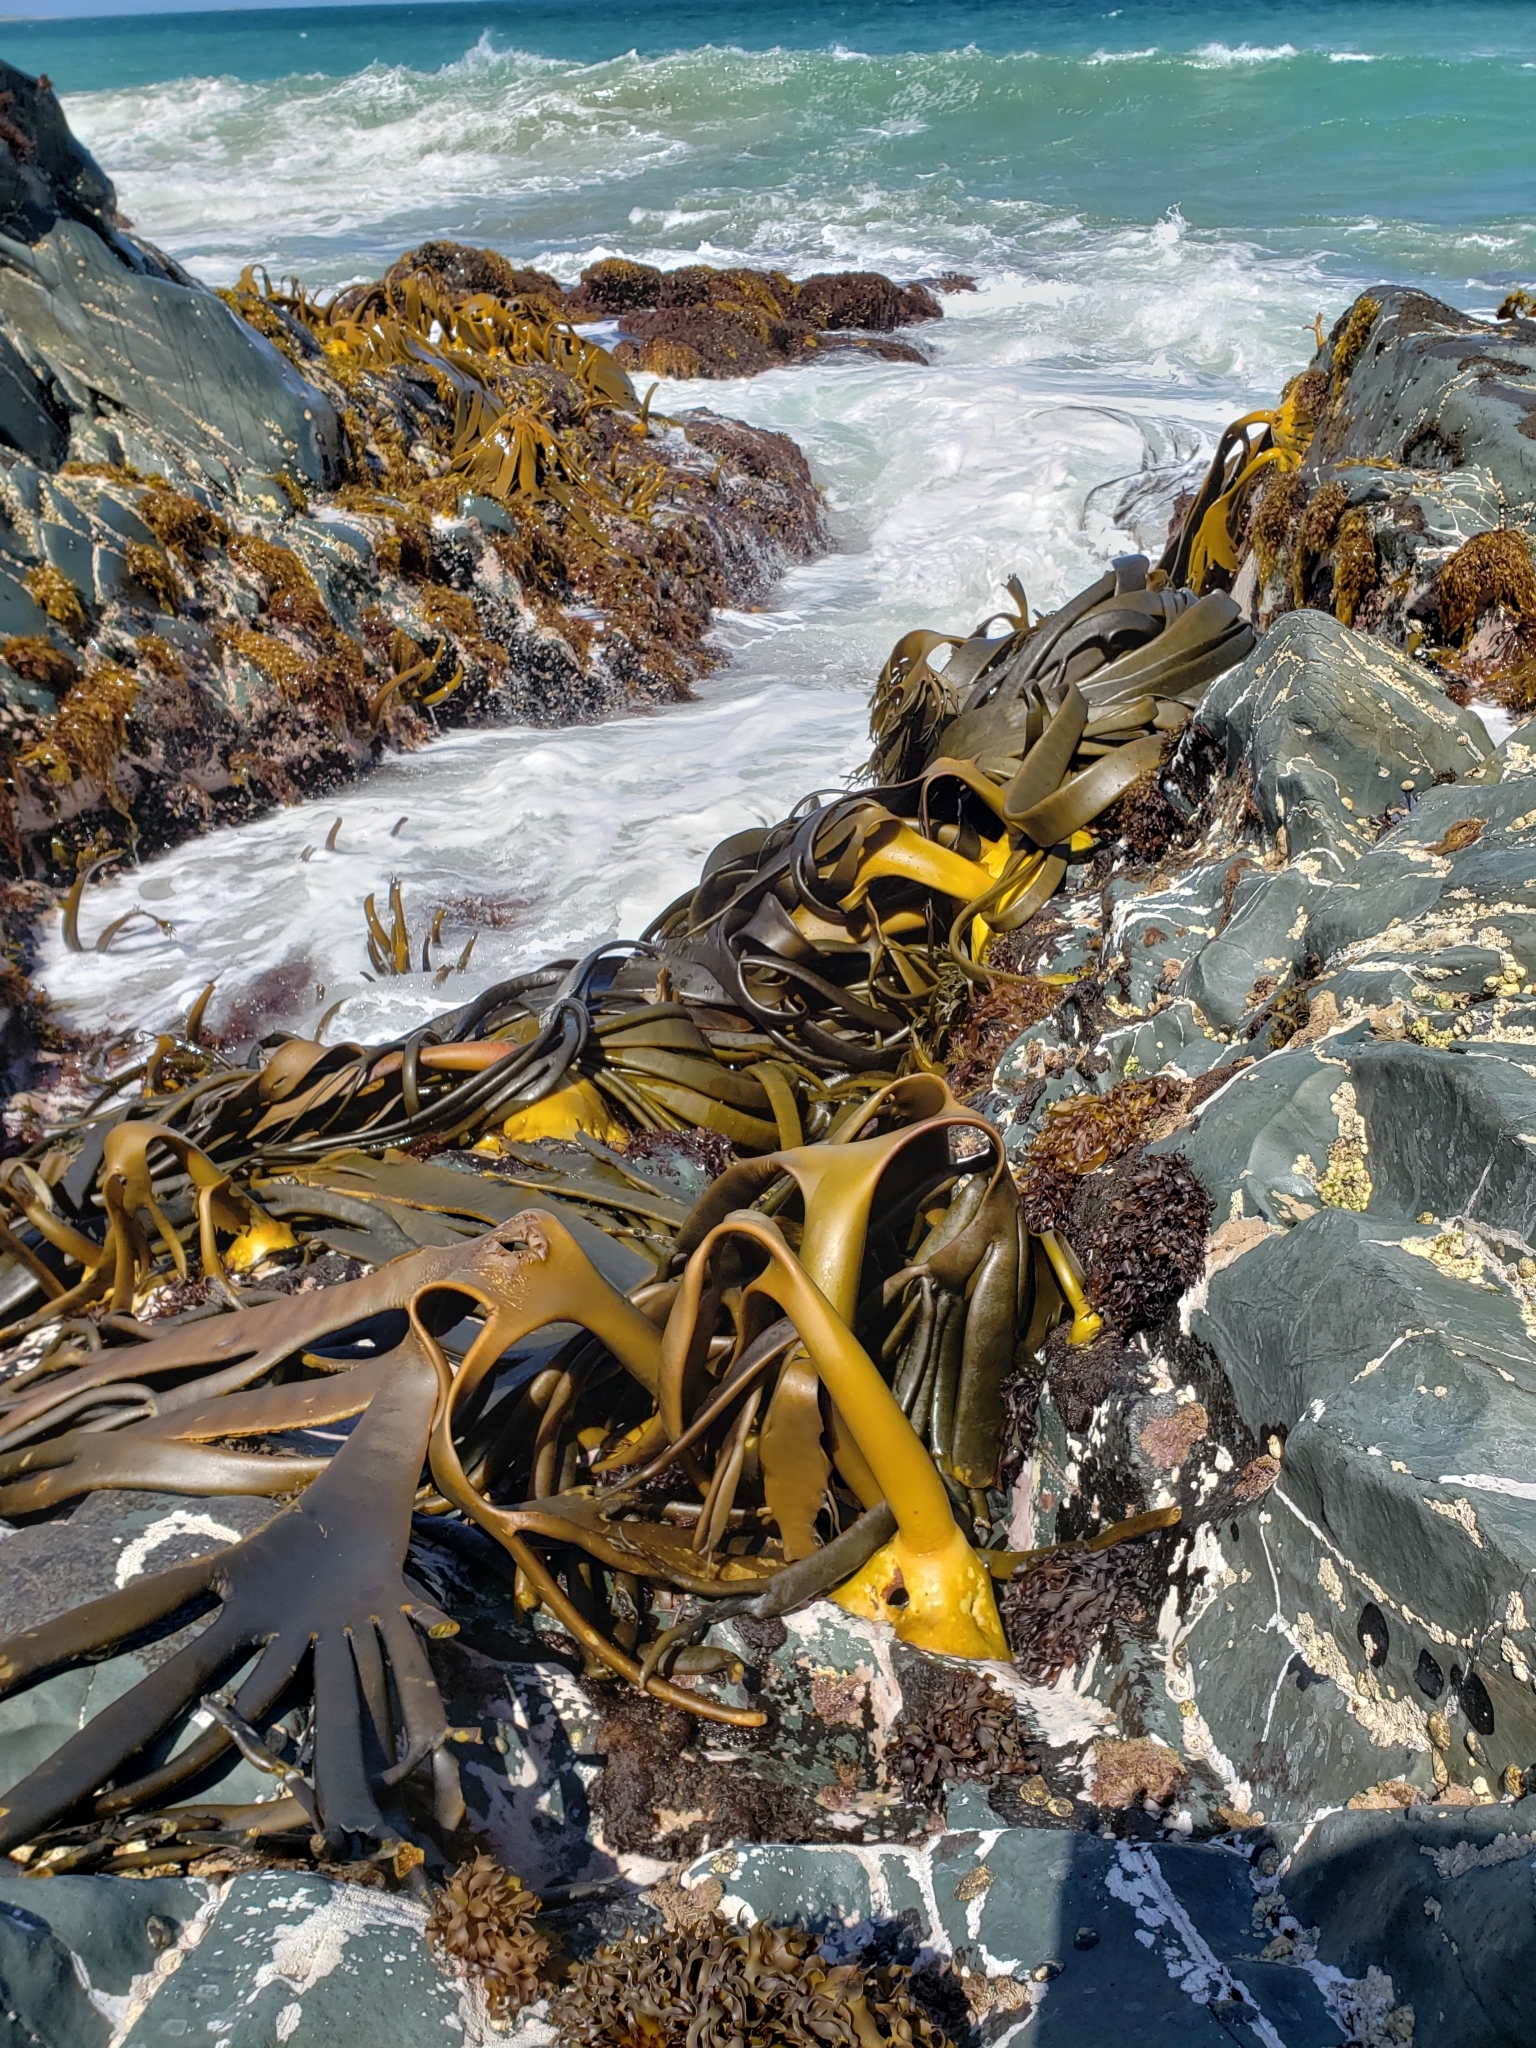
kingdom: Chromista
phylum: Ochrophyta
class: Phaeophyceae
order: Fucales
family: Durvillaeaceae
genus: Durvillaea
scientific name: Durvillaea antarctica
